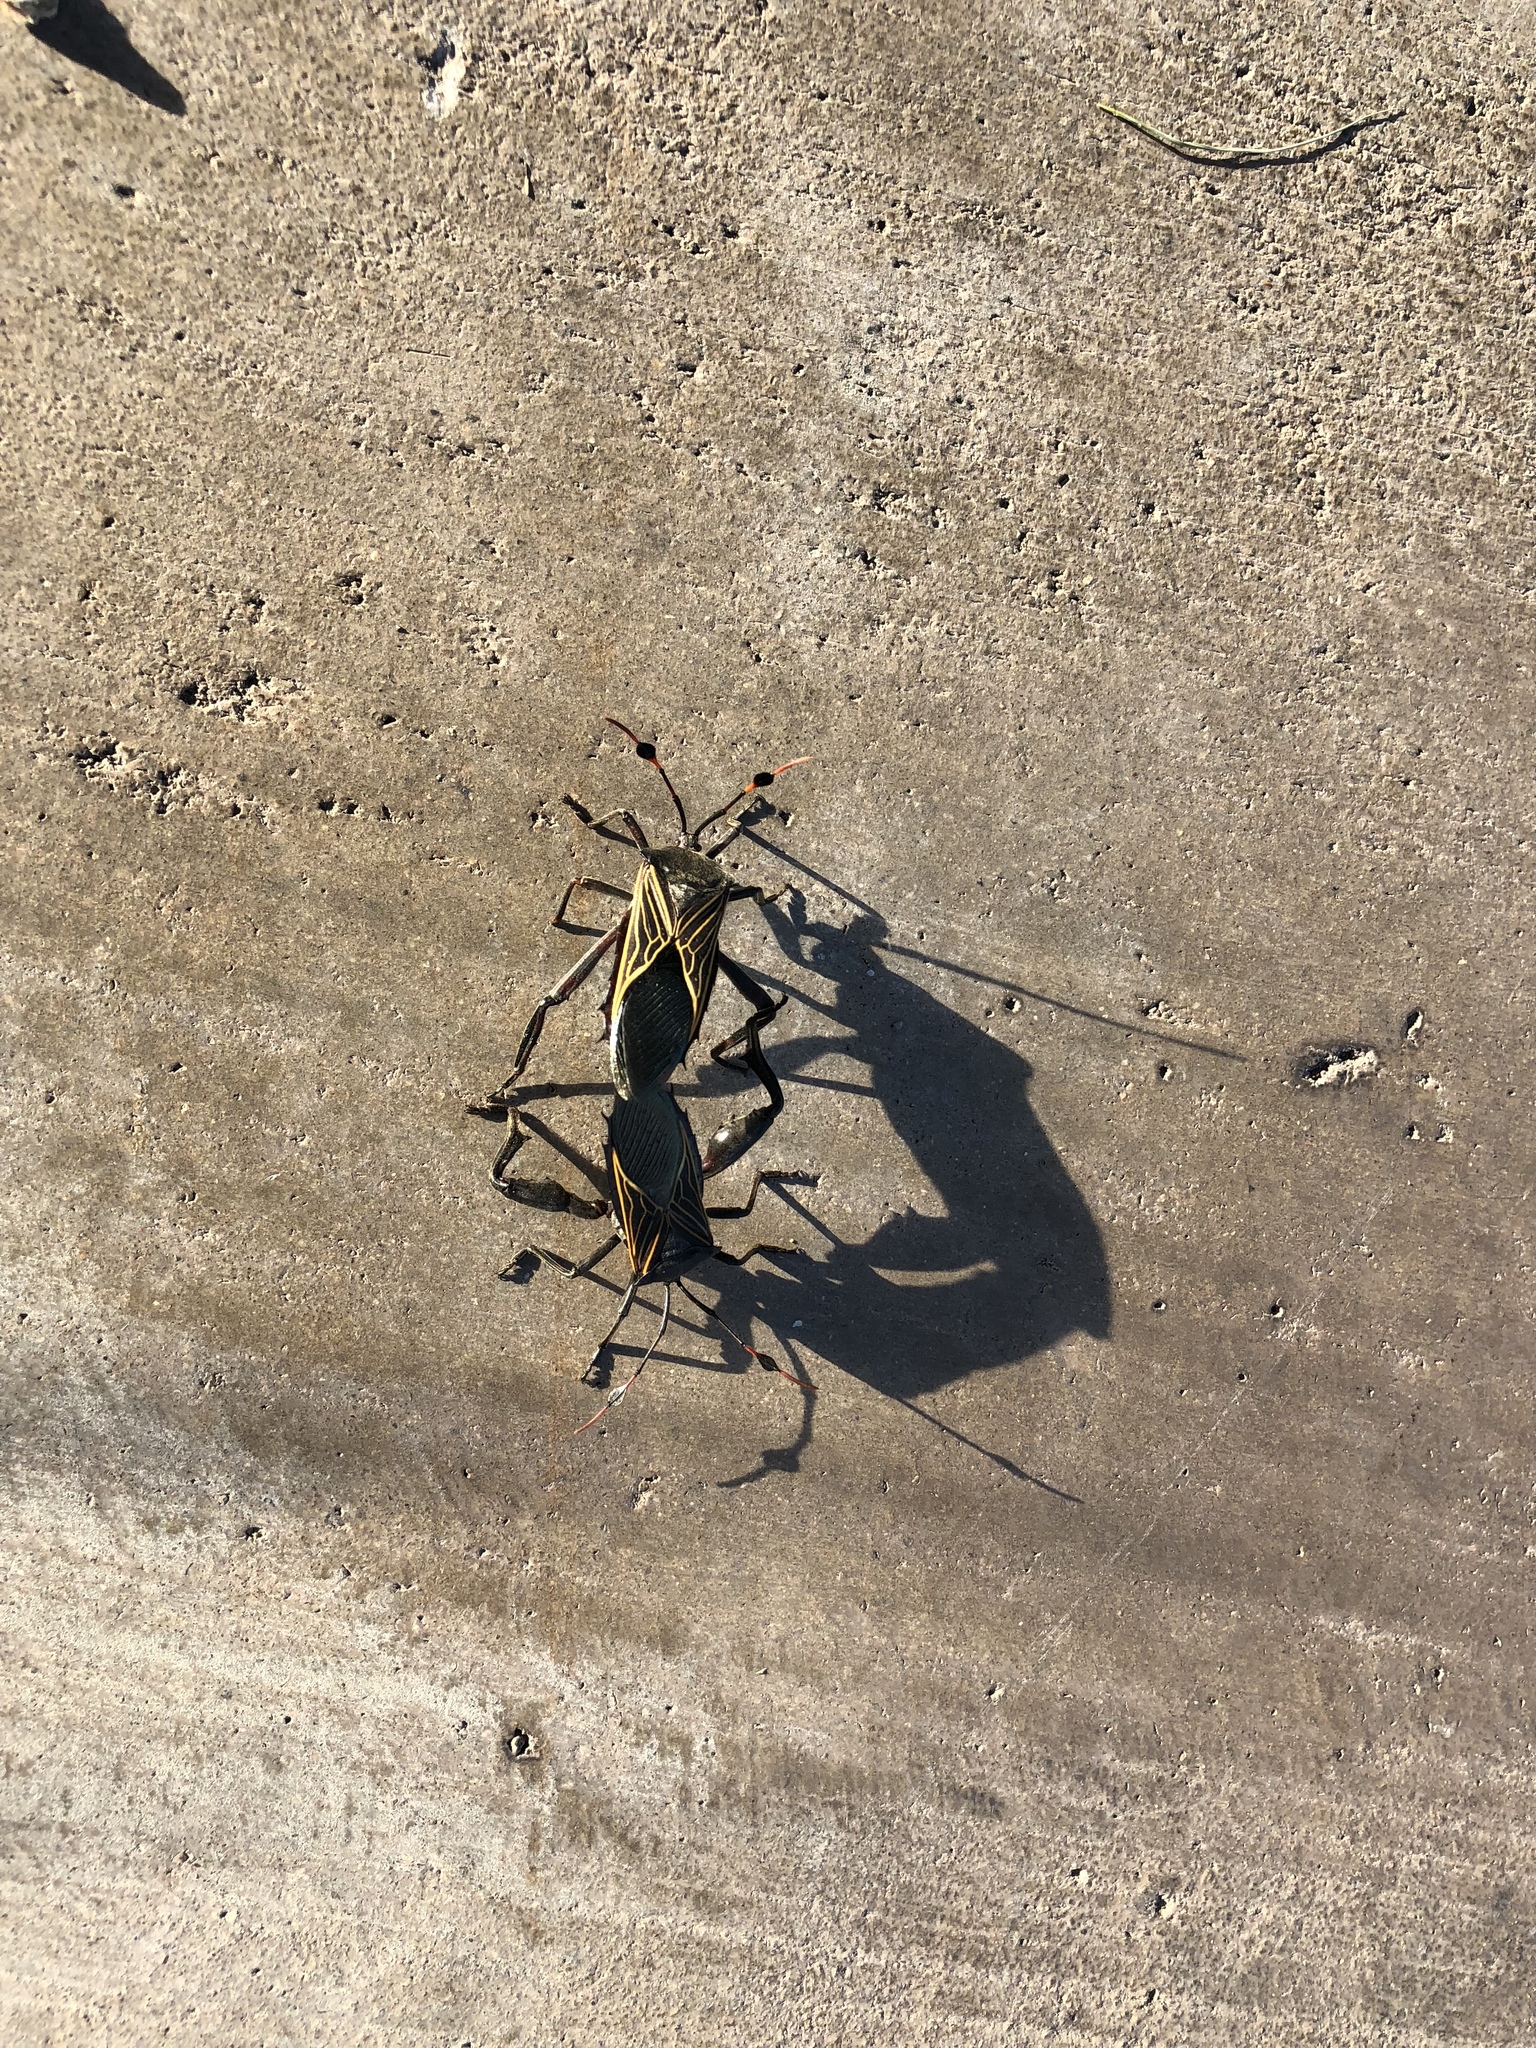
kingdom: Animalia
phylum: Arthropoda
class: Insecta
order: Hemiptera
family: Coreidae
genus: Thasus
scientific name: Thasus neocalifornicus
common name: Giant mesquite bug
